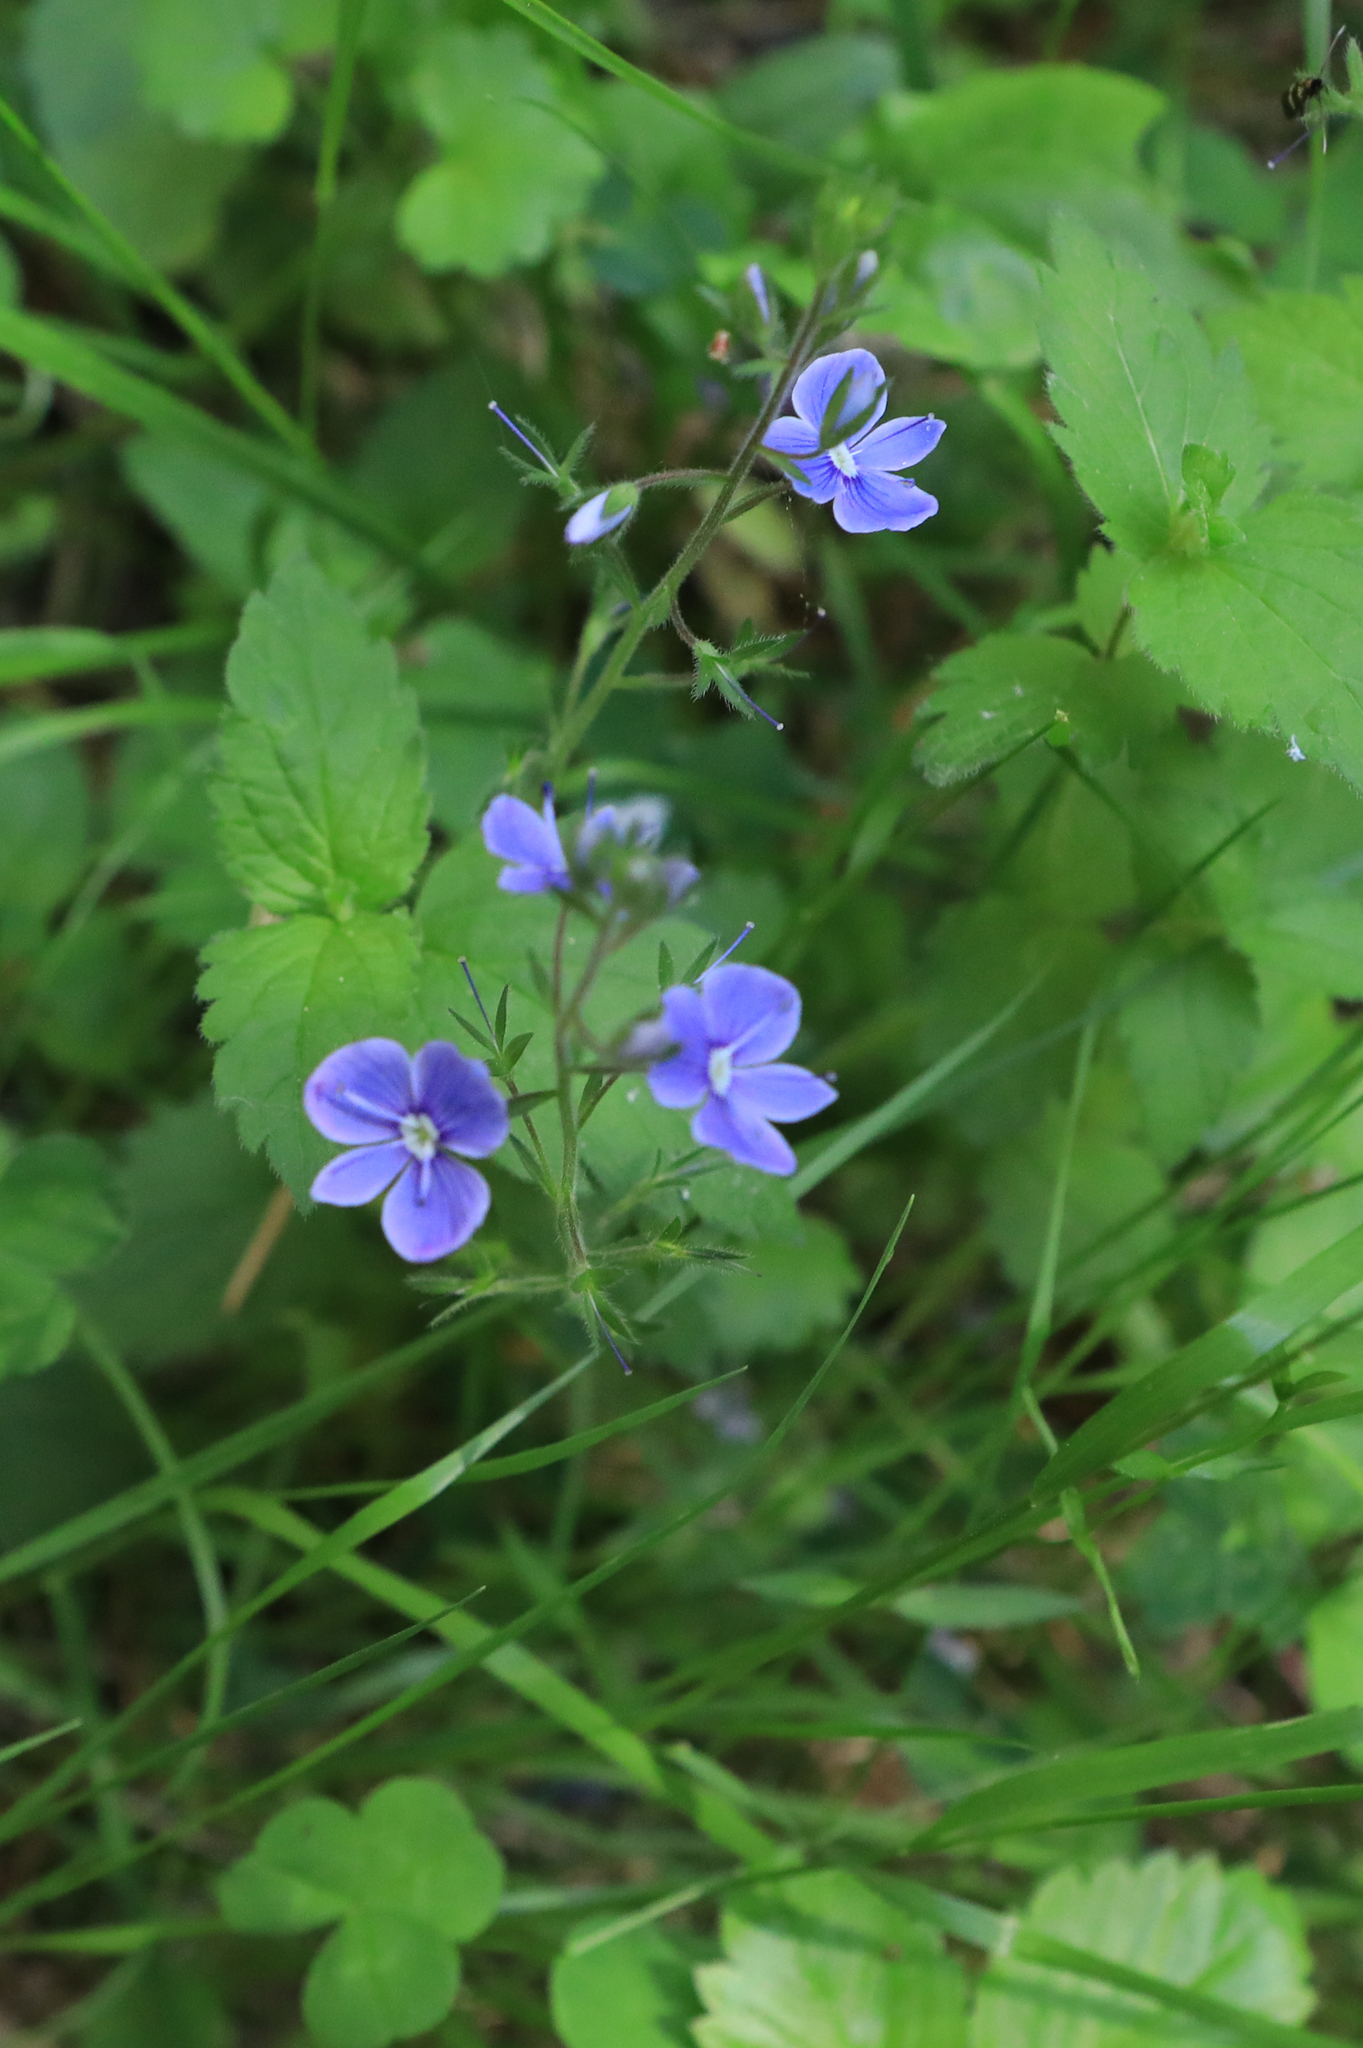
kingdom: Plantae
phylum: Tracheophyta
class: Magnoliopsida
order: Lamiales
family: Plantaginaceae
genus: Veronica
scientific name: Veronica chamaedrys
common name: Germander speedwell
